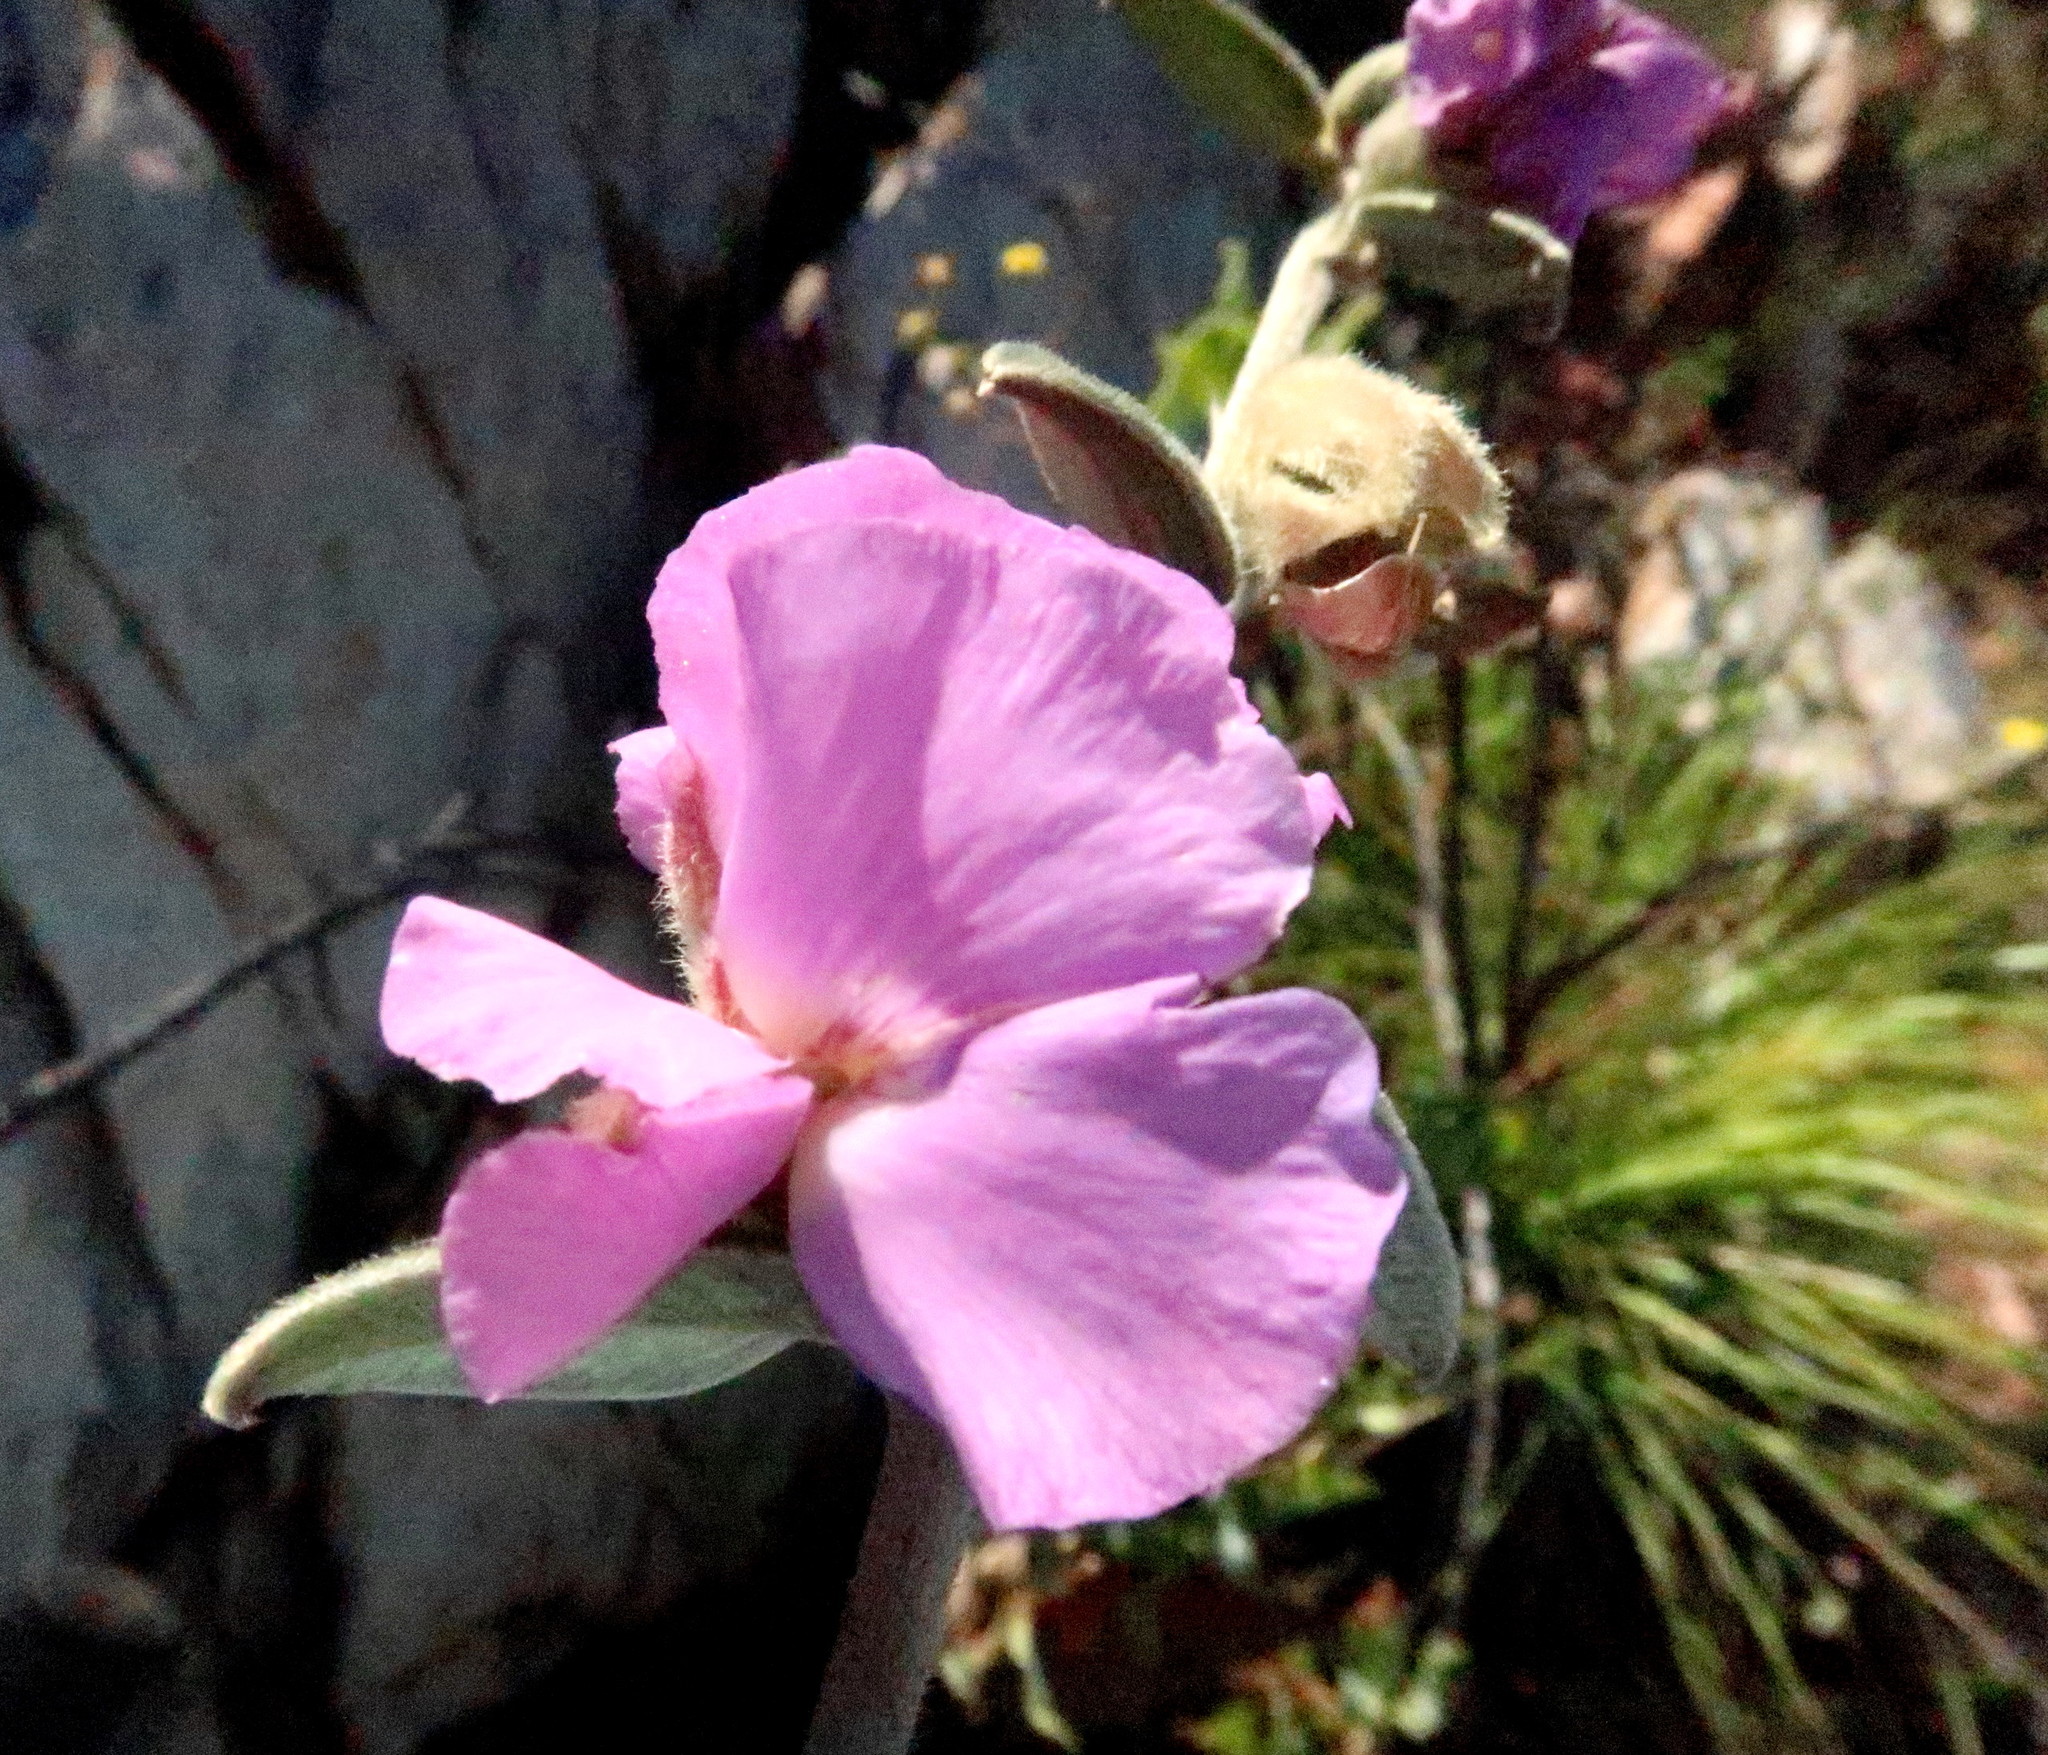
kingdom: Plantae
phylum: Tracheophyta
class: Magnoliopsida
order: Fabales
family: Fabaceae
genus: Podalyria
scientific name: Podalyria burchellii
